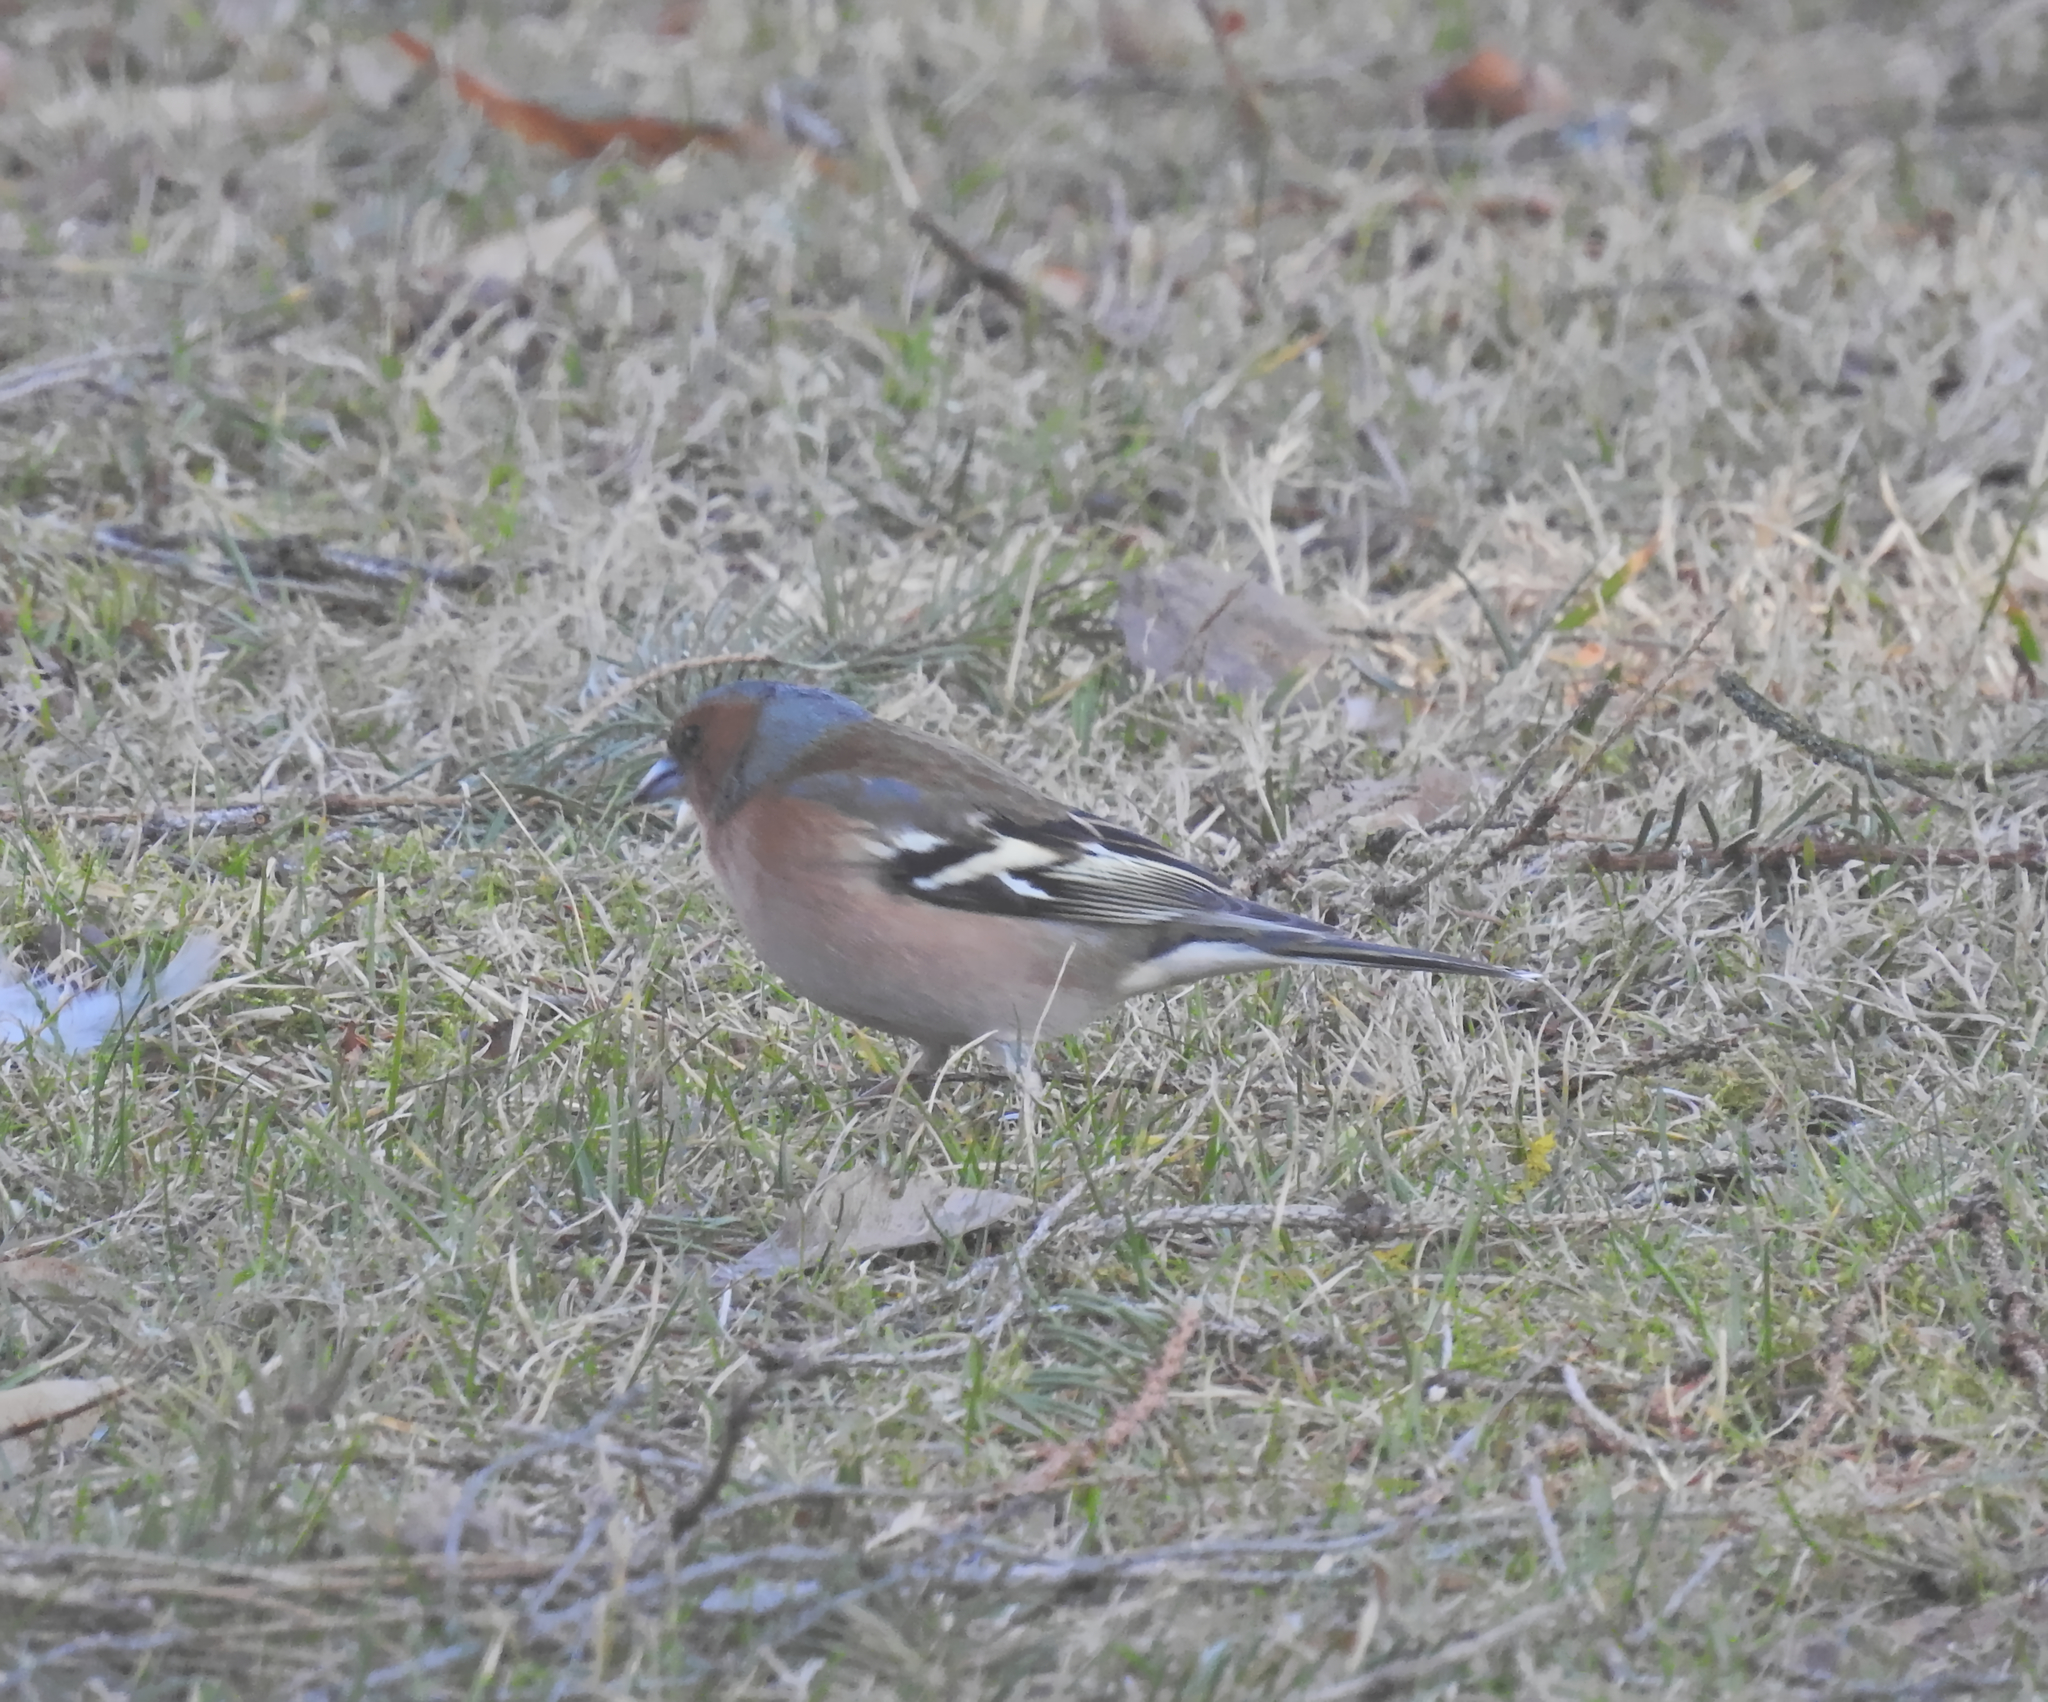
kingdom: Animalia
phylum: Chordata
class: Aves
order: Passeriformes
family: Fringillidae
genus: Fringilla
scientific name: Fringilla coelebs
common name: Common chaffinch
